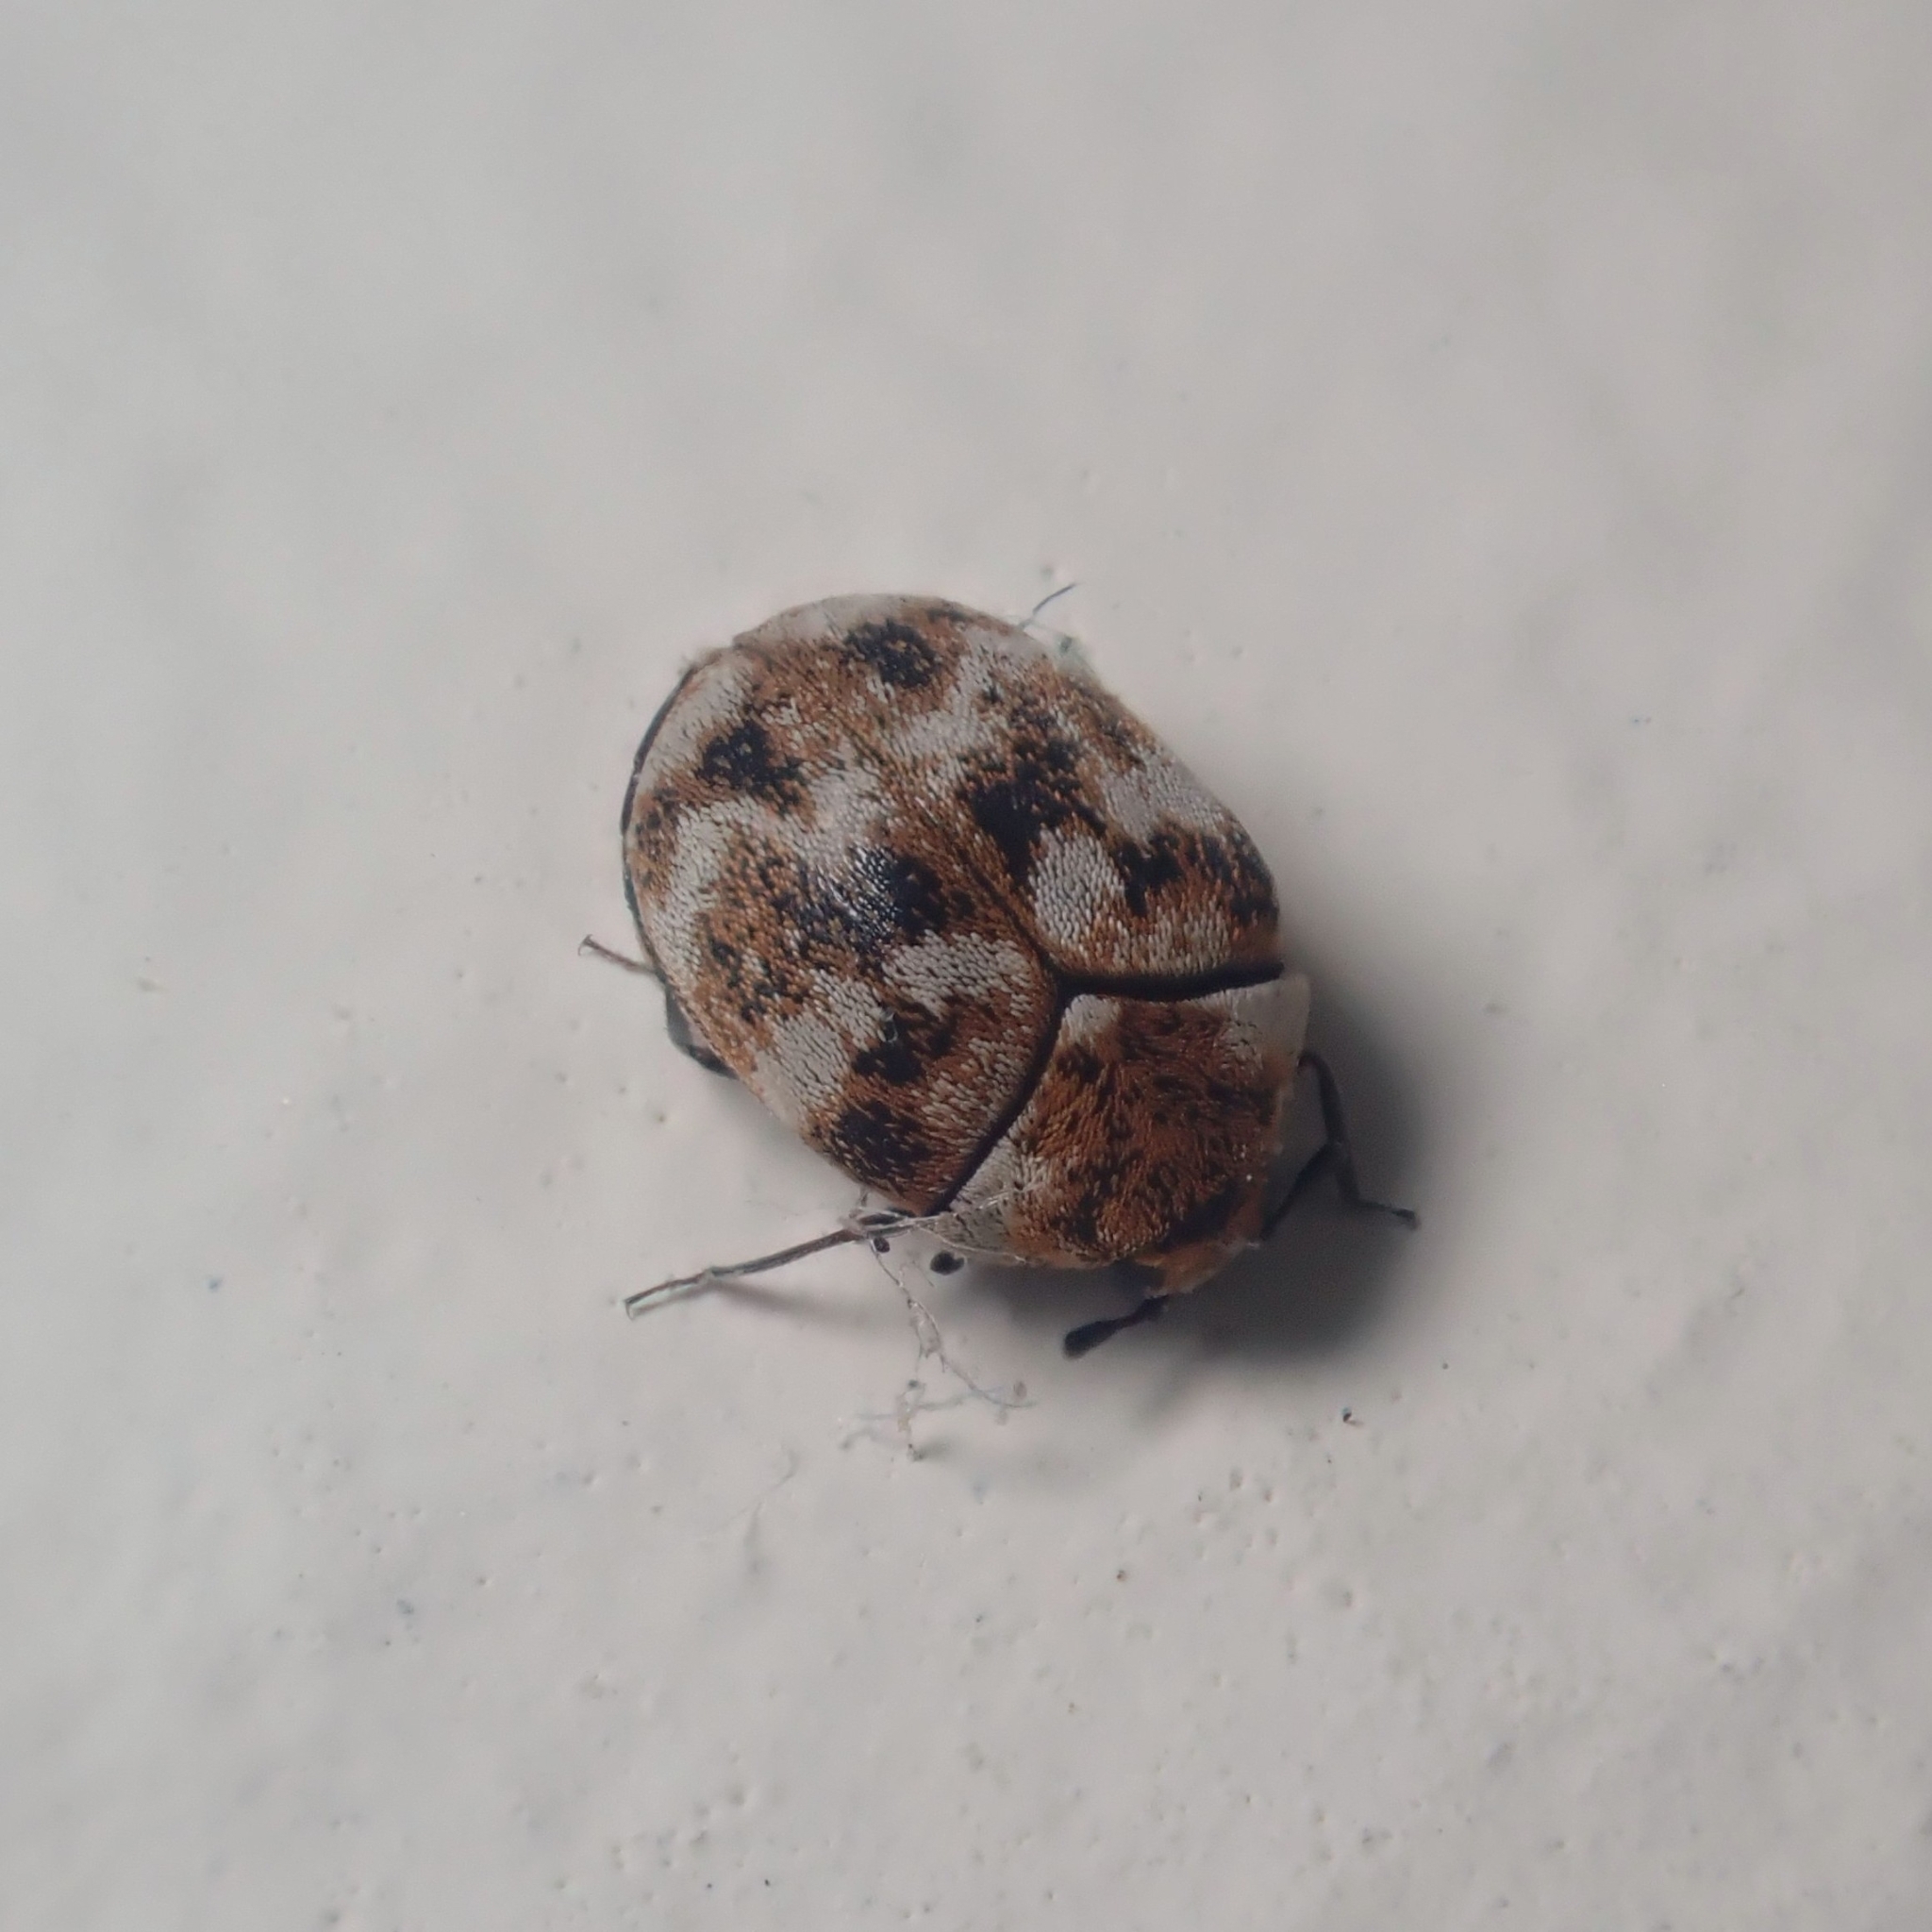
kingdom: Animalia
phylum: Arthropoda
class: Insecta
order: Coleoptera
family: Dermestidae
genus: Anthrenus
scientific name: Anthrenus verbasci
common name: Varied carpet beetle
